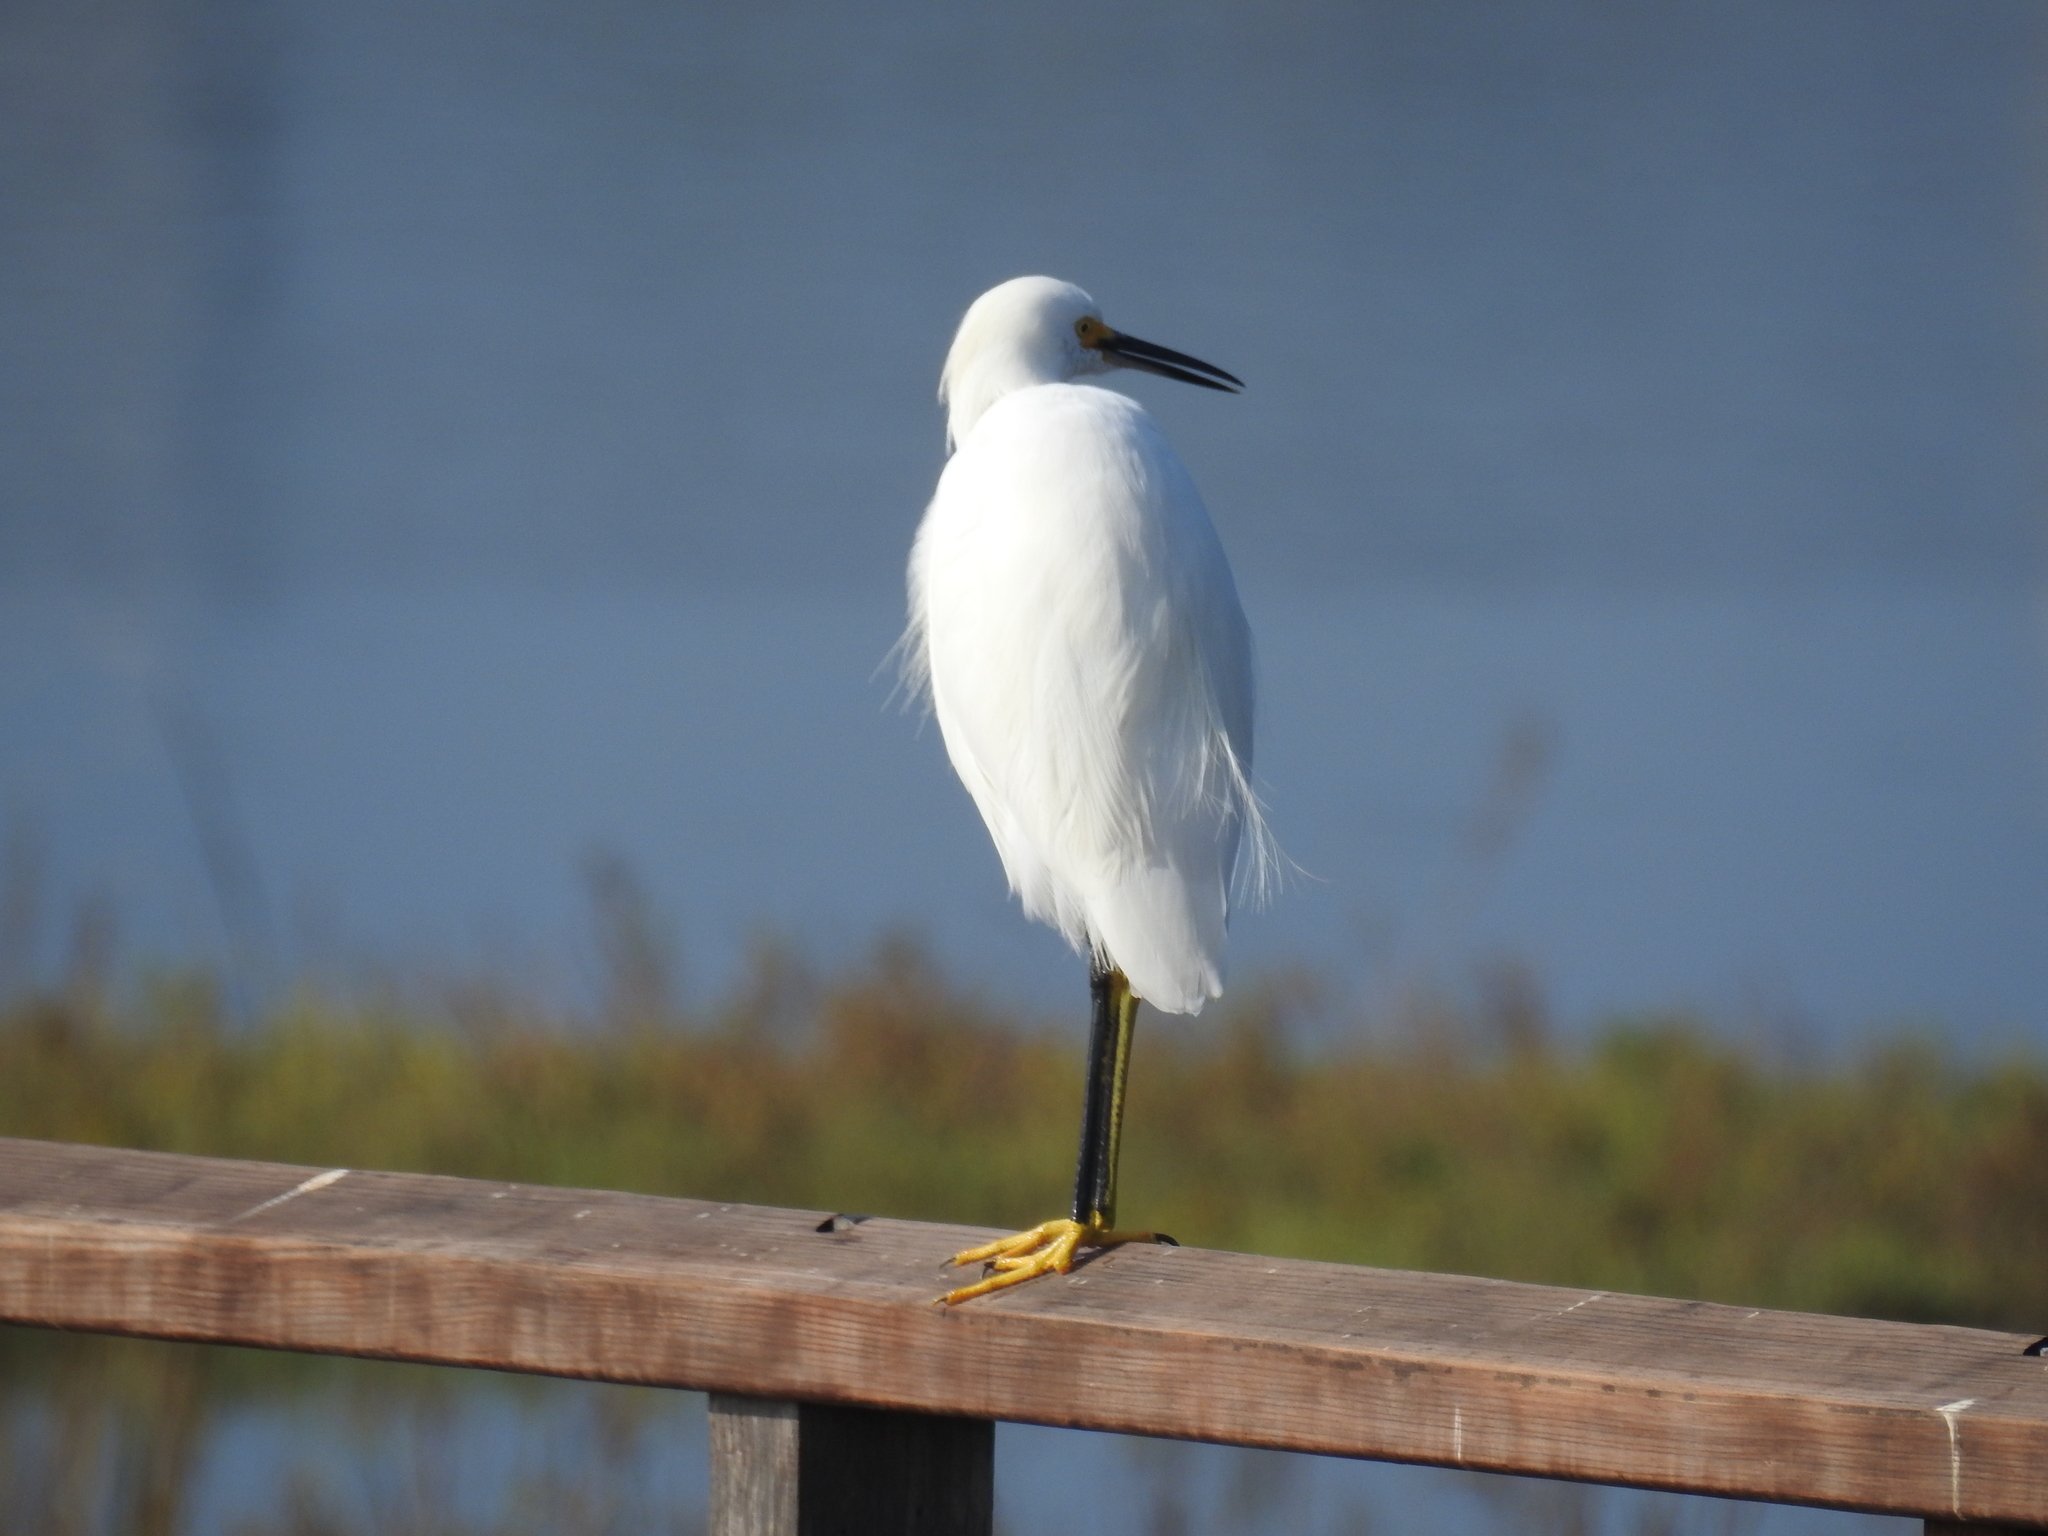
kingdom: Animalia
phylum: Chordata
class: Aves
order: Pelecaniformes
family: Ardeidae
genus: Egretta
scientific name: Egretta thula
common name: Snowy egret
